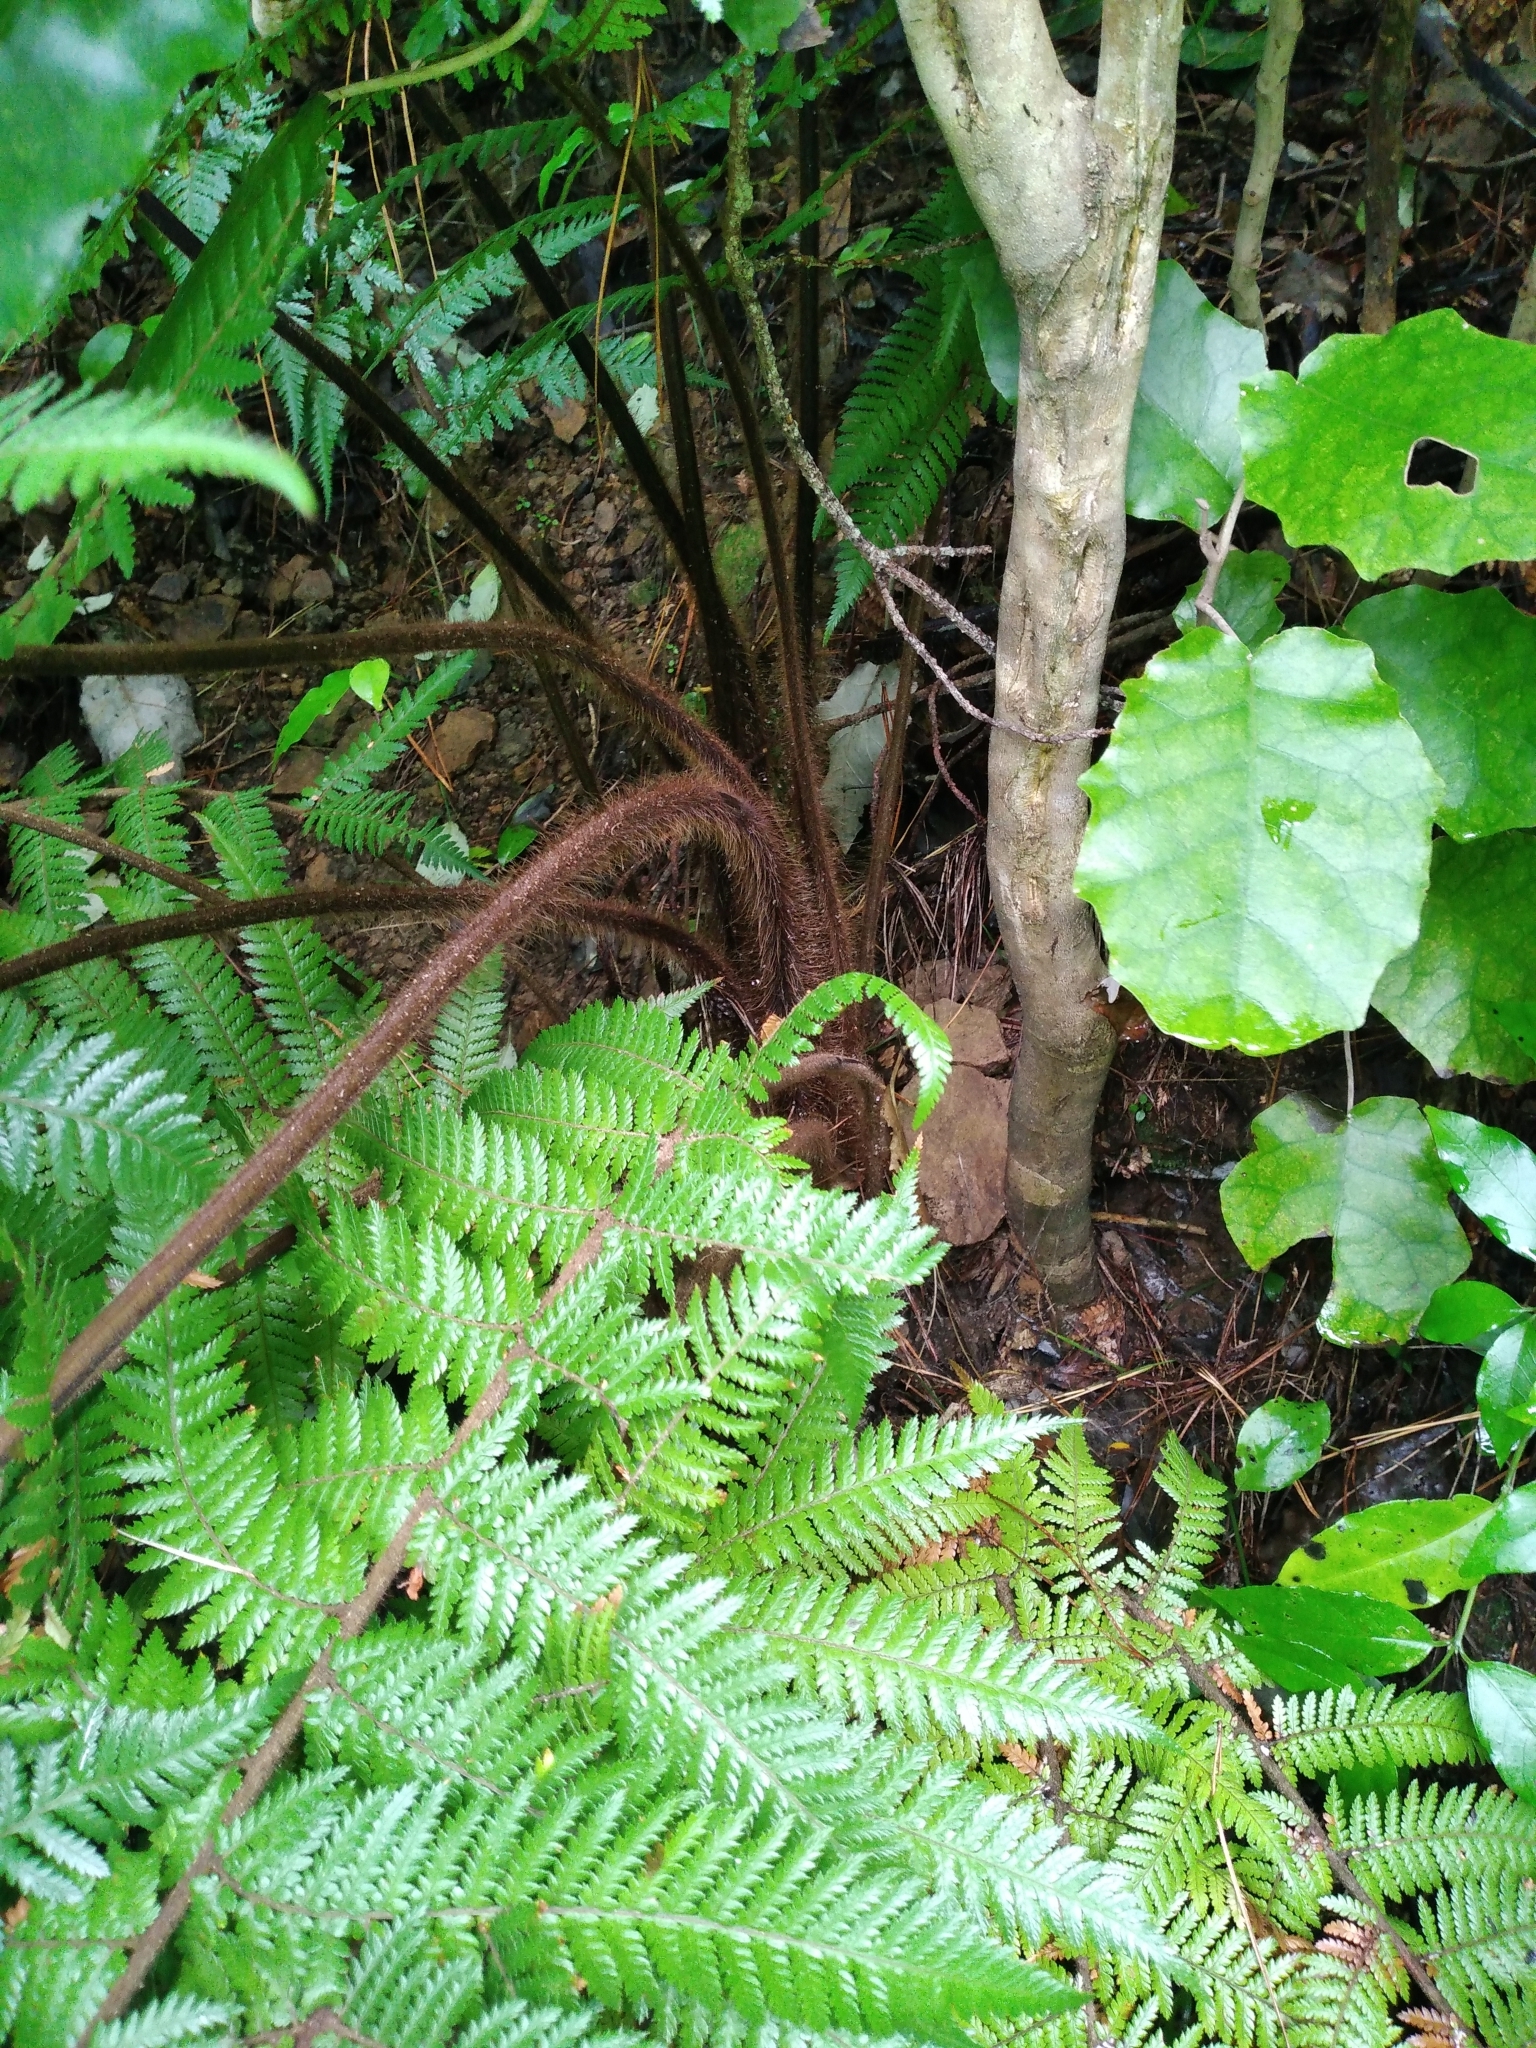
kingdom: Plantae
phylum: Tracheophyta
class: Polypodiopsida
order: Cyatheales
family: Dicksoniaceae
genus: Dicksonia
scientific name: Dicksonia squarrosa
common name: Hard treefern
